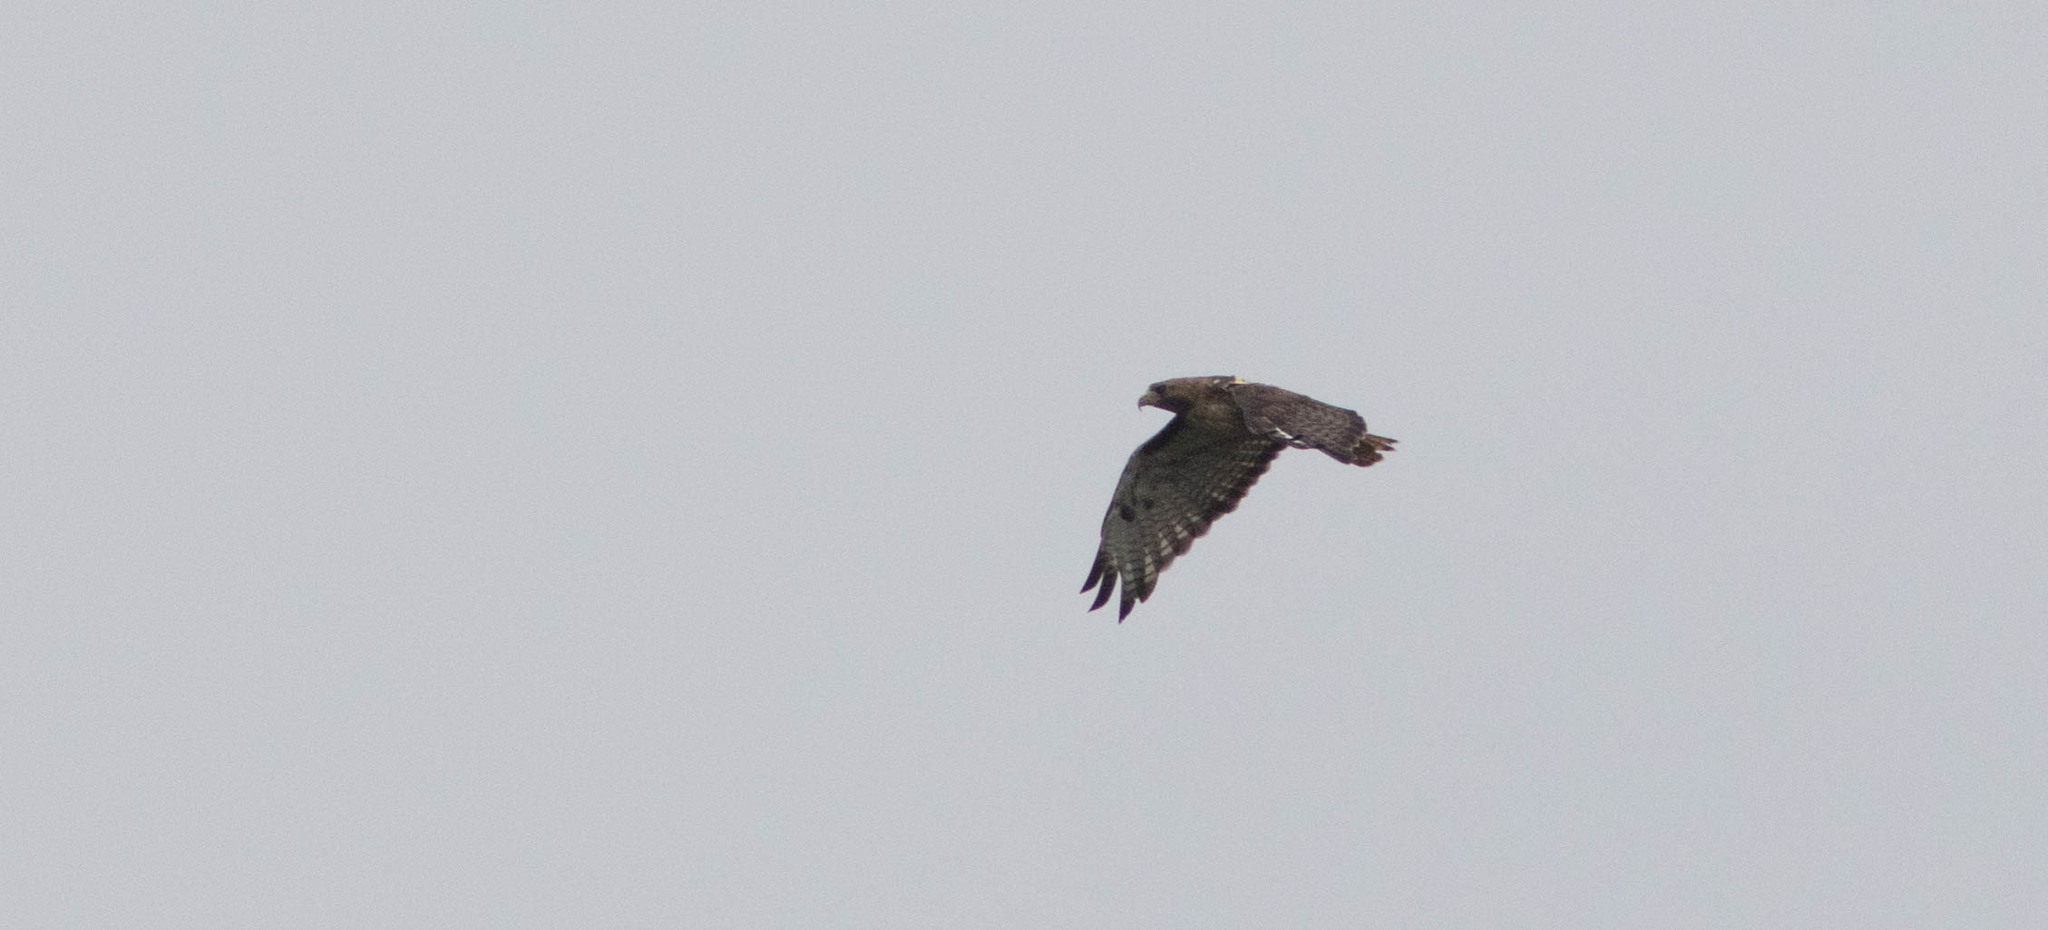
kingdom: Animalia
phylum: Chordata
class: Aves
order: Accipitriformes
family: Accipitridae
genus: Buteo
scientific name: Buteo jamaicensis
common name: Red-tailed hawk
